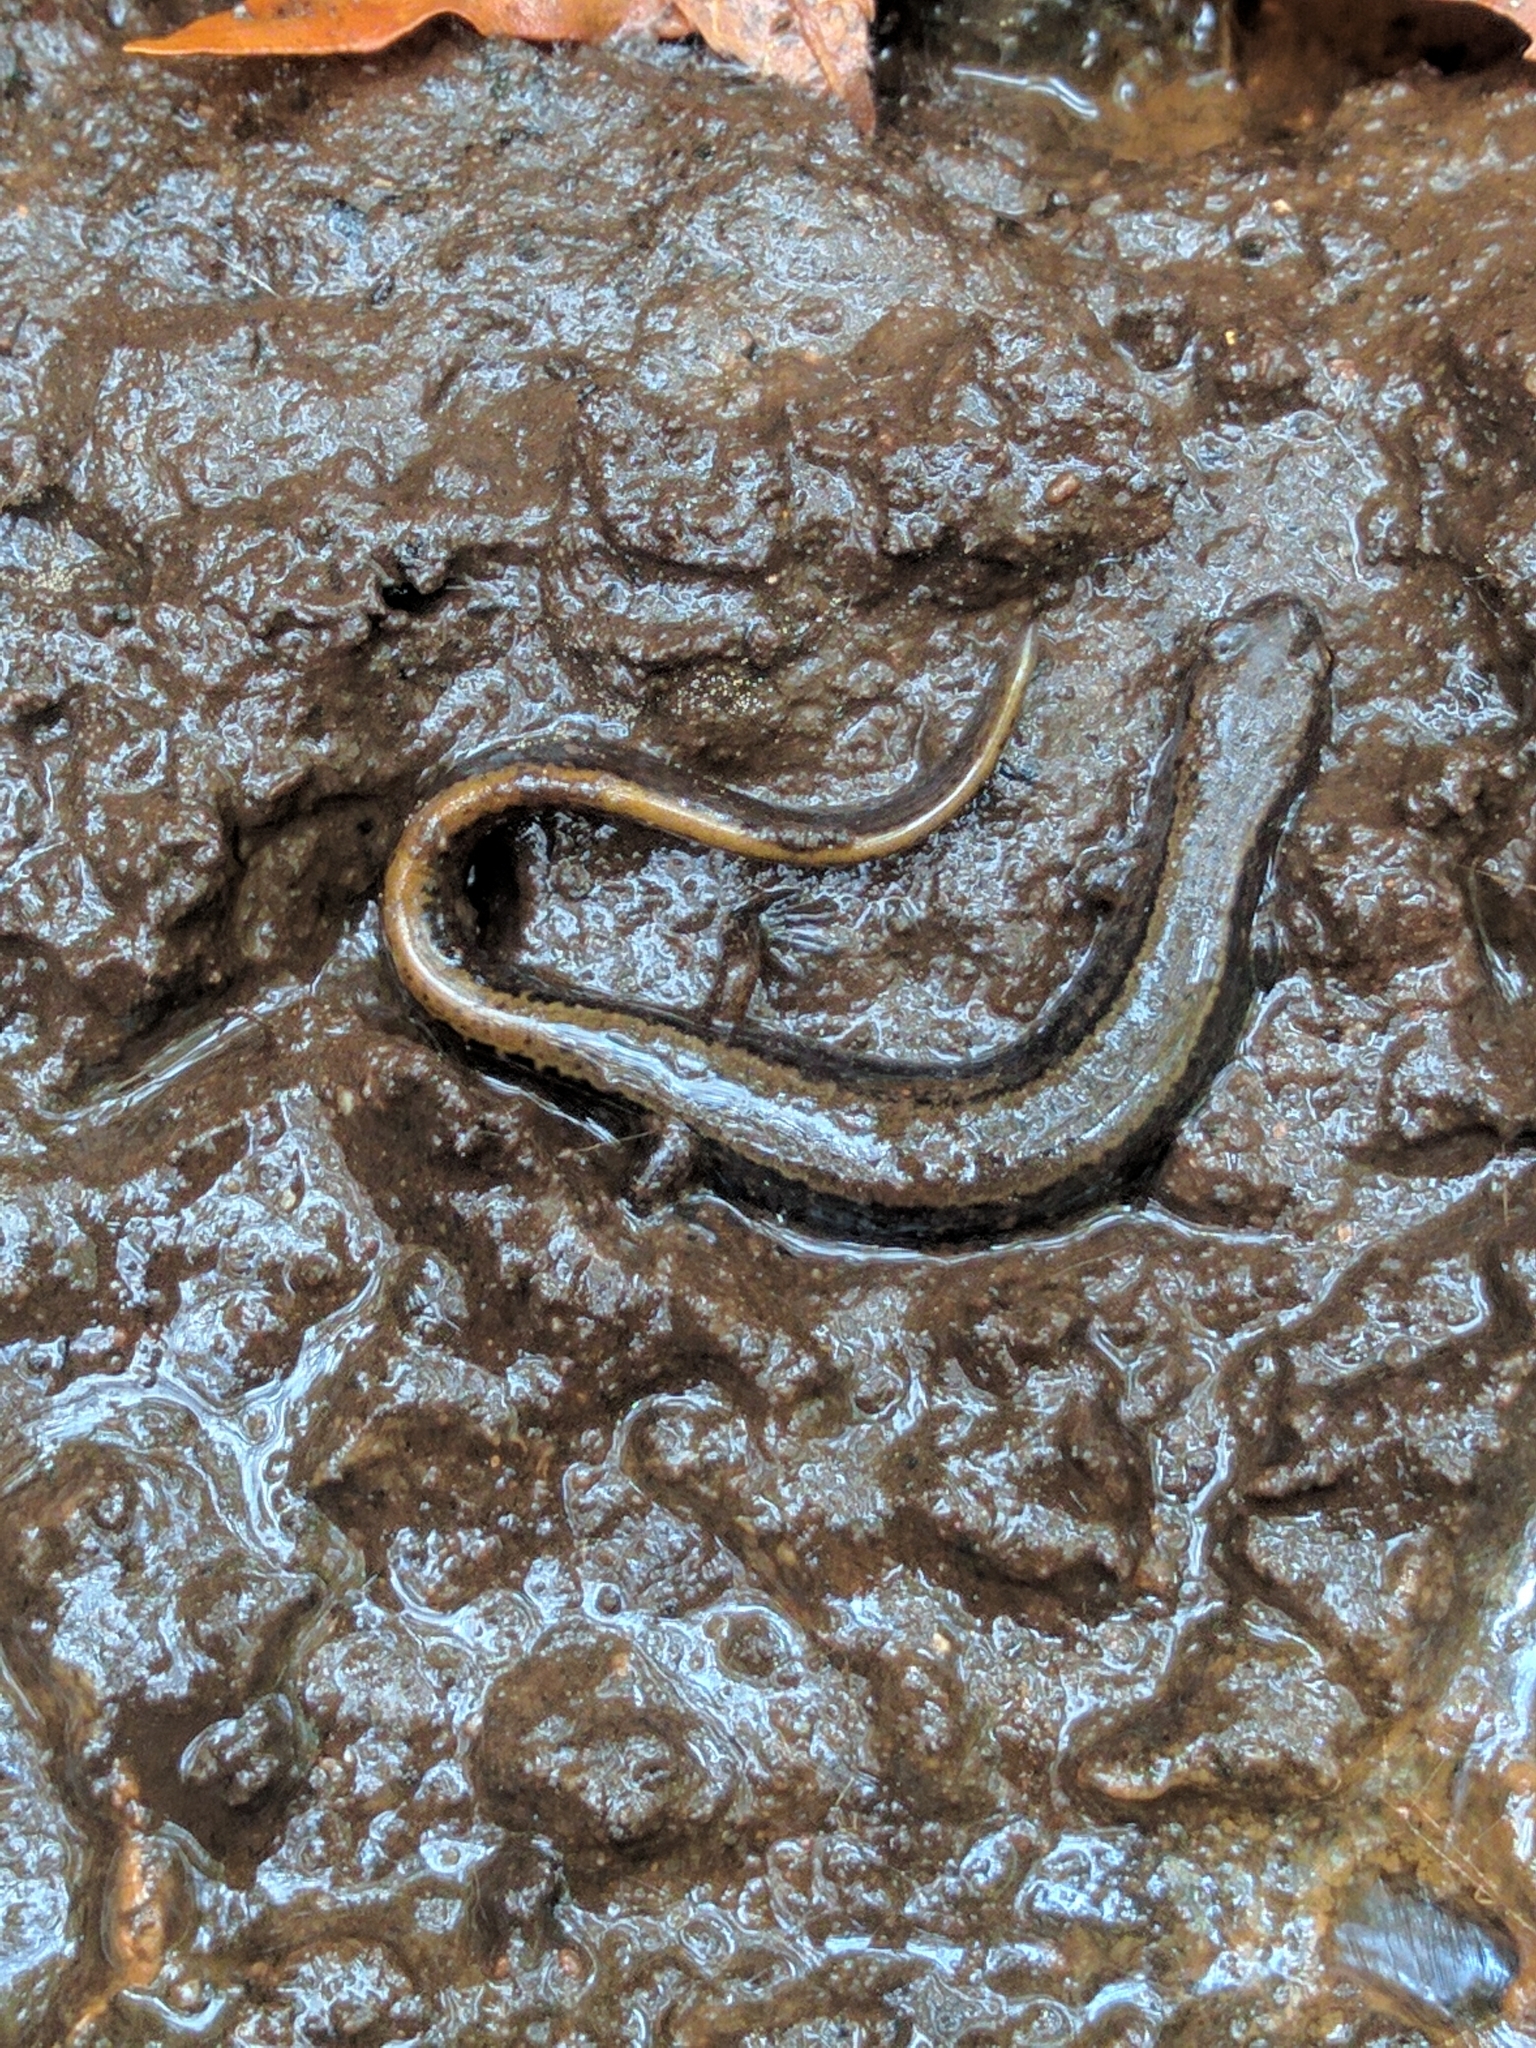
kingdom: Animalia
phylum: Chordata
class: Amphibia
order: Caudata
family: Plethodontidae
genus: Eurycea
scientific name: Eurycea bislineata
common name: Northern two-lined salamander
